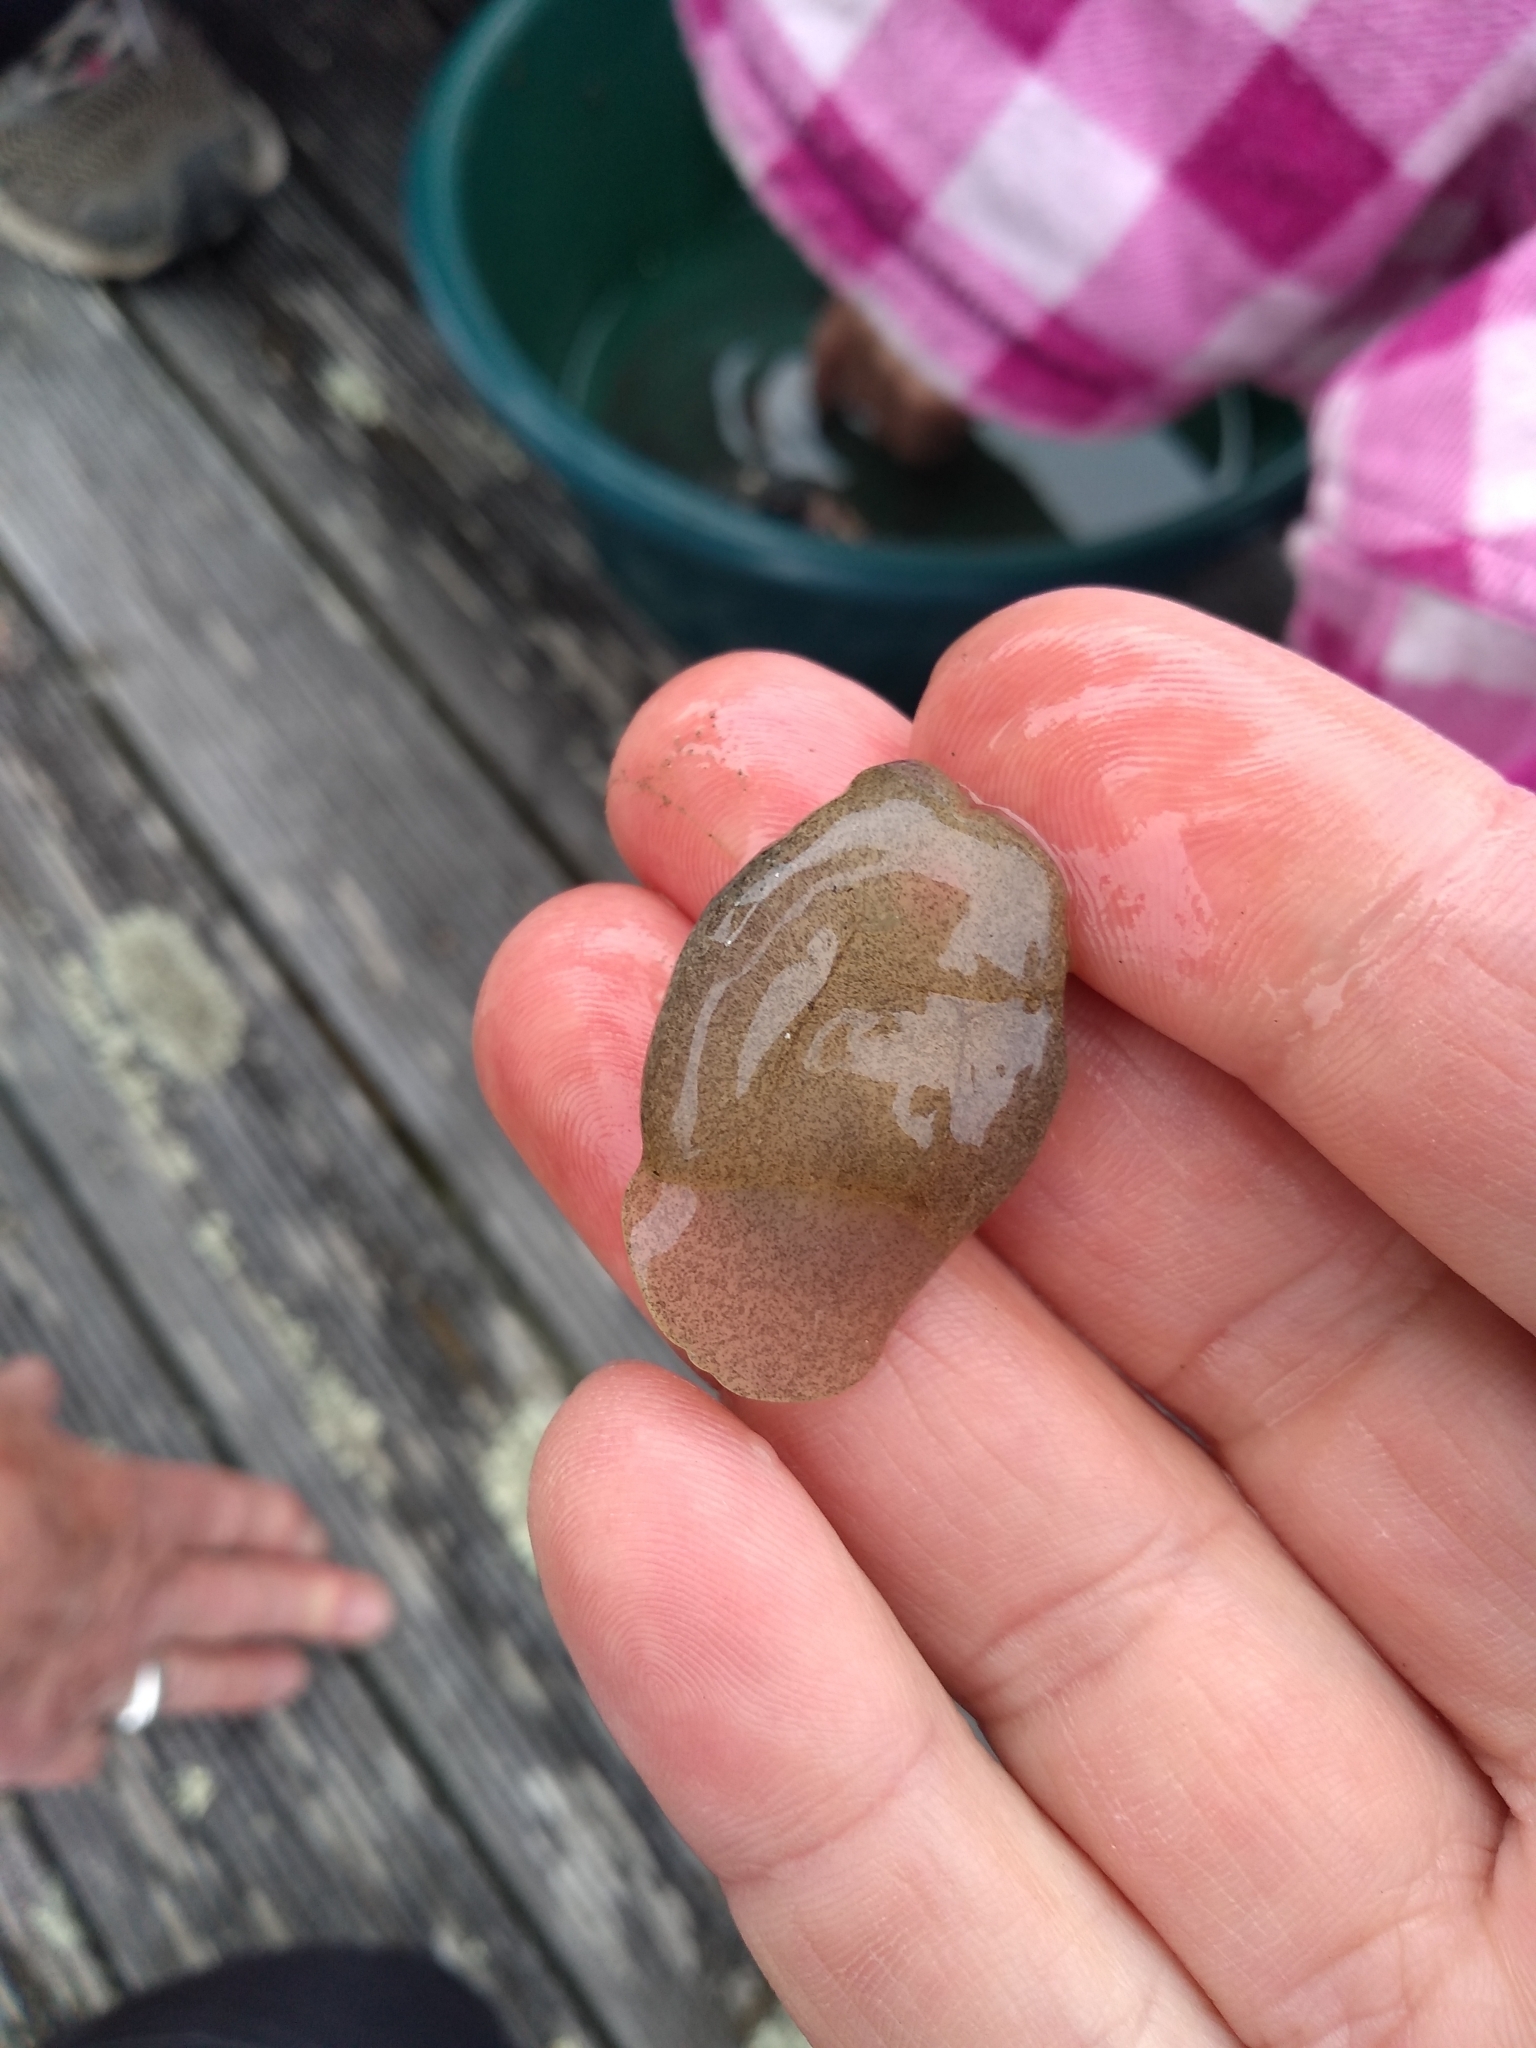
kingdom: Animalia
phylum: Mollusca
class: Gastropoda
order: Cephalaspidea
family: Haminoeidae
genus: Papawera
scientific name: Papawera zelandiae
